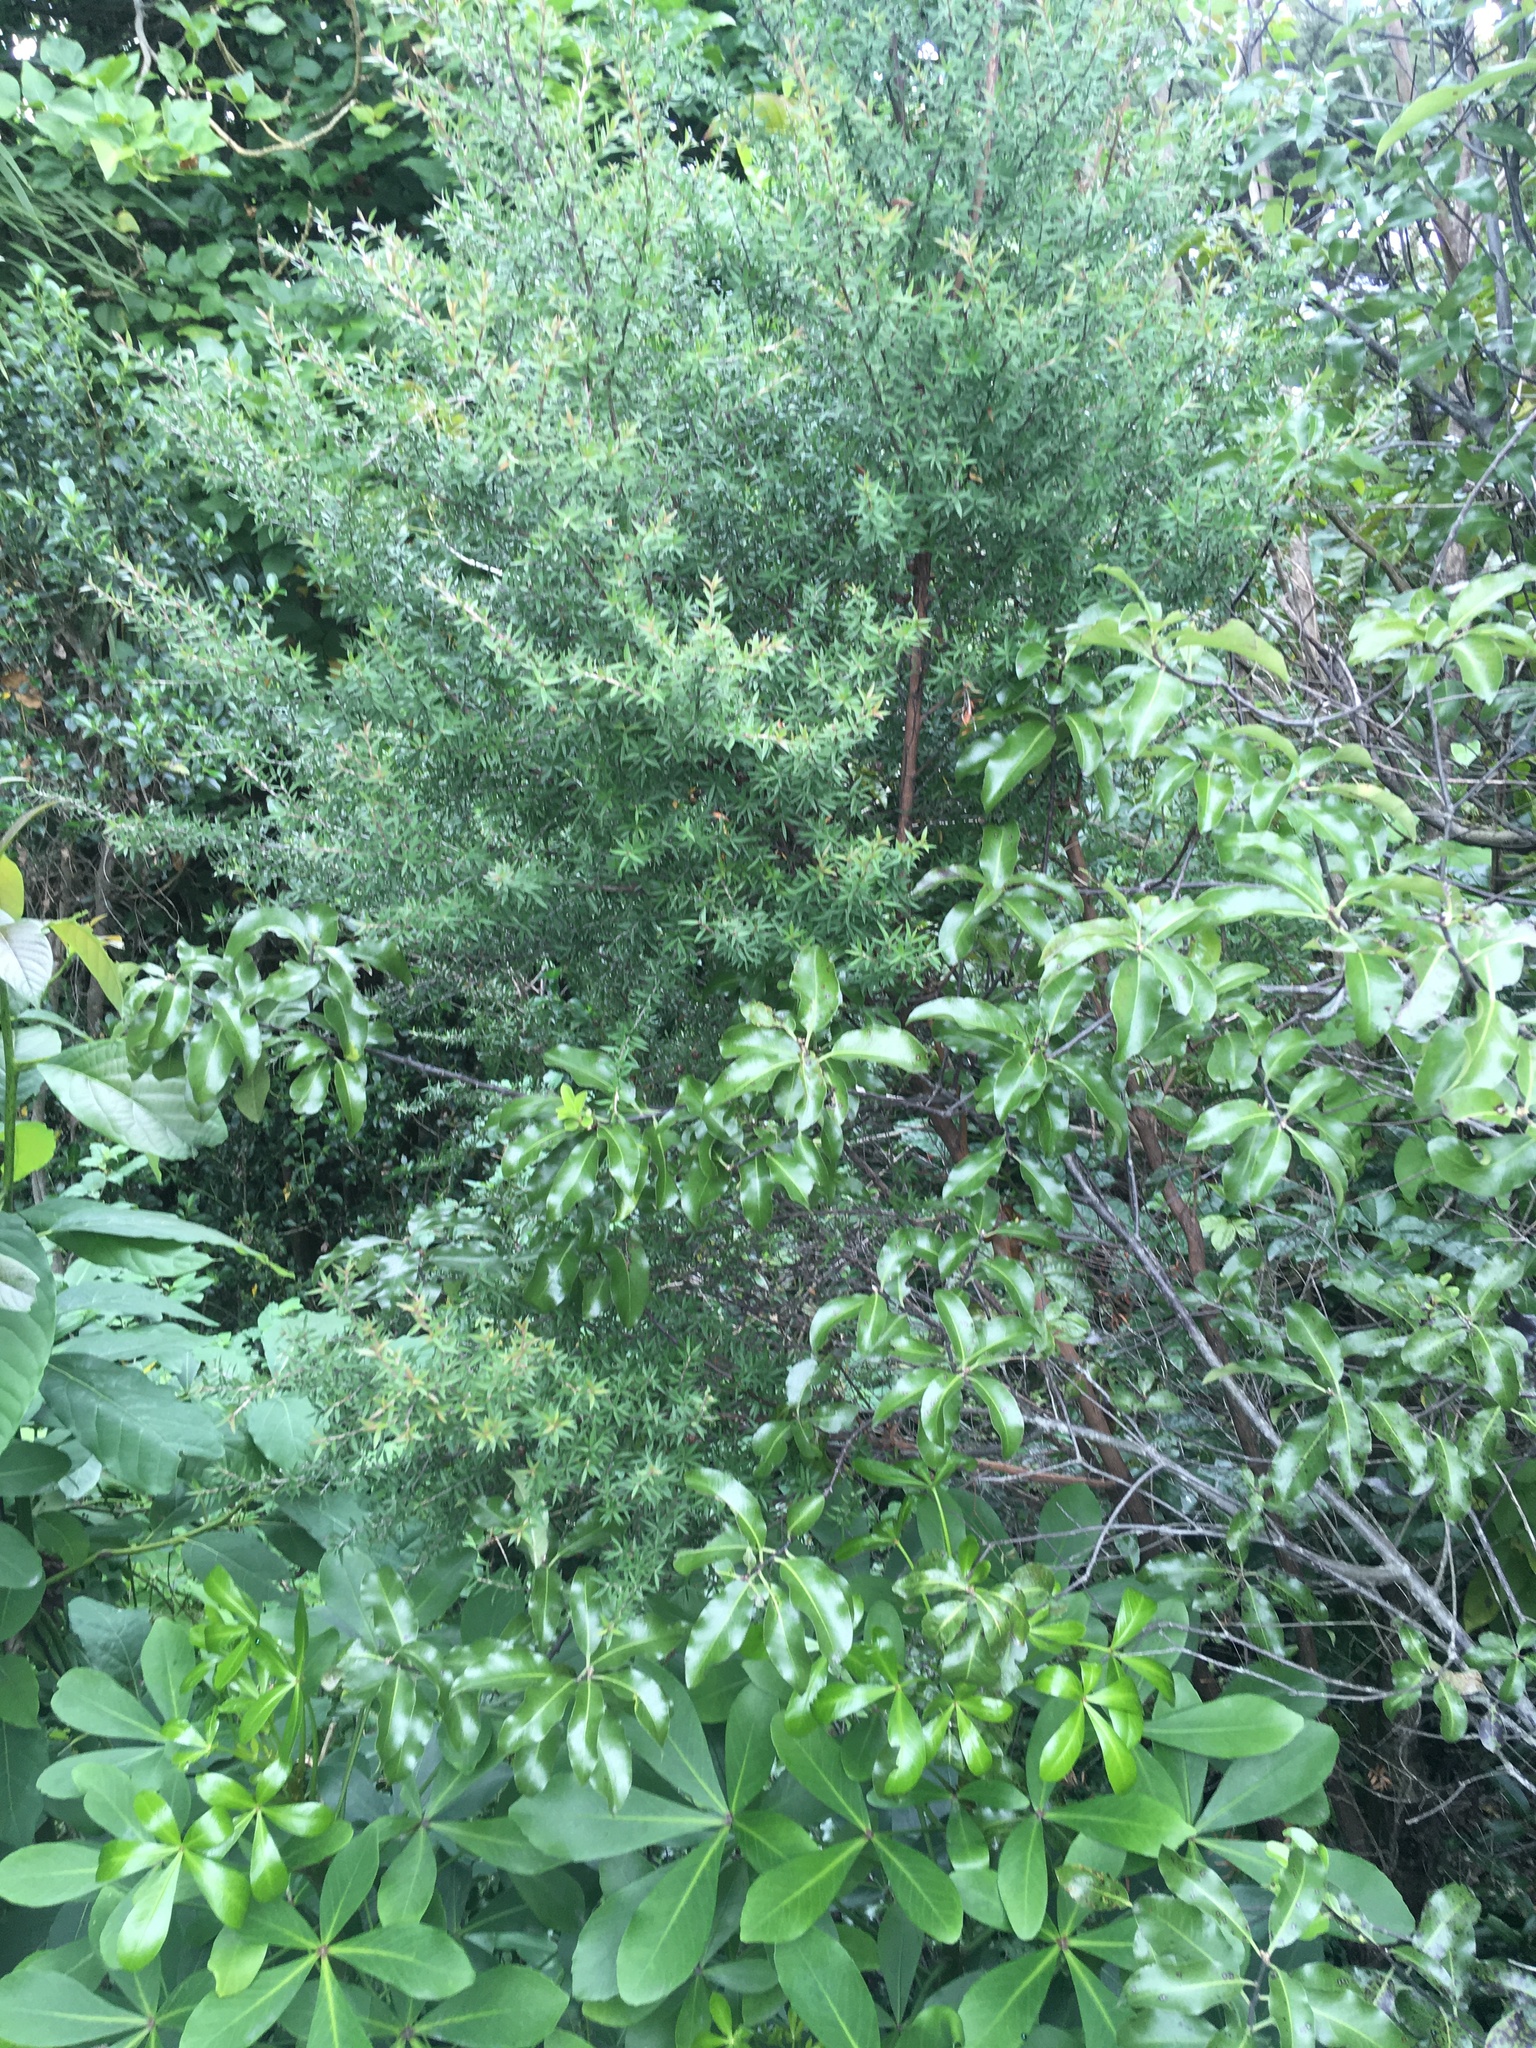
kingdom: Plantae
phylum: Tracheophyta
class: Magnoliopsida
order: Apiales
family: Pittosporaceae
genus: Pittosporum
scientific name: Pittosporum tenuifolium
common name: Kohuhu
